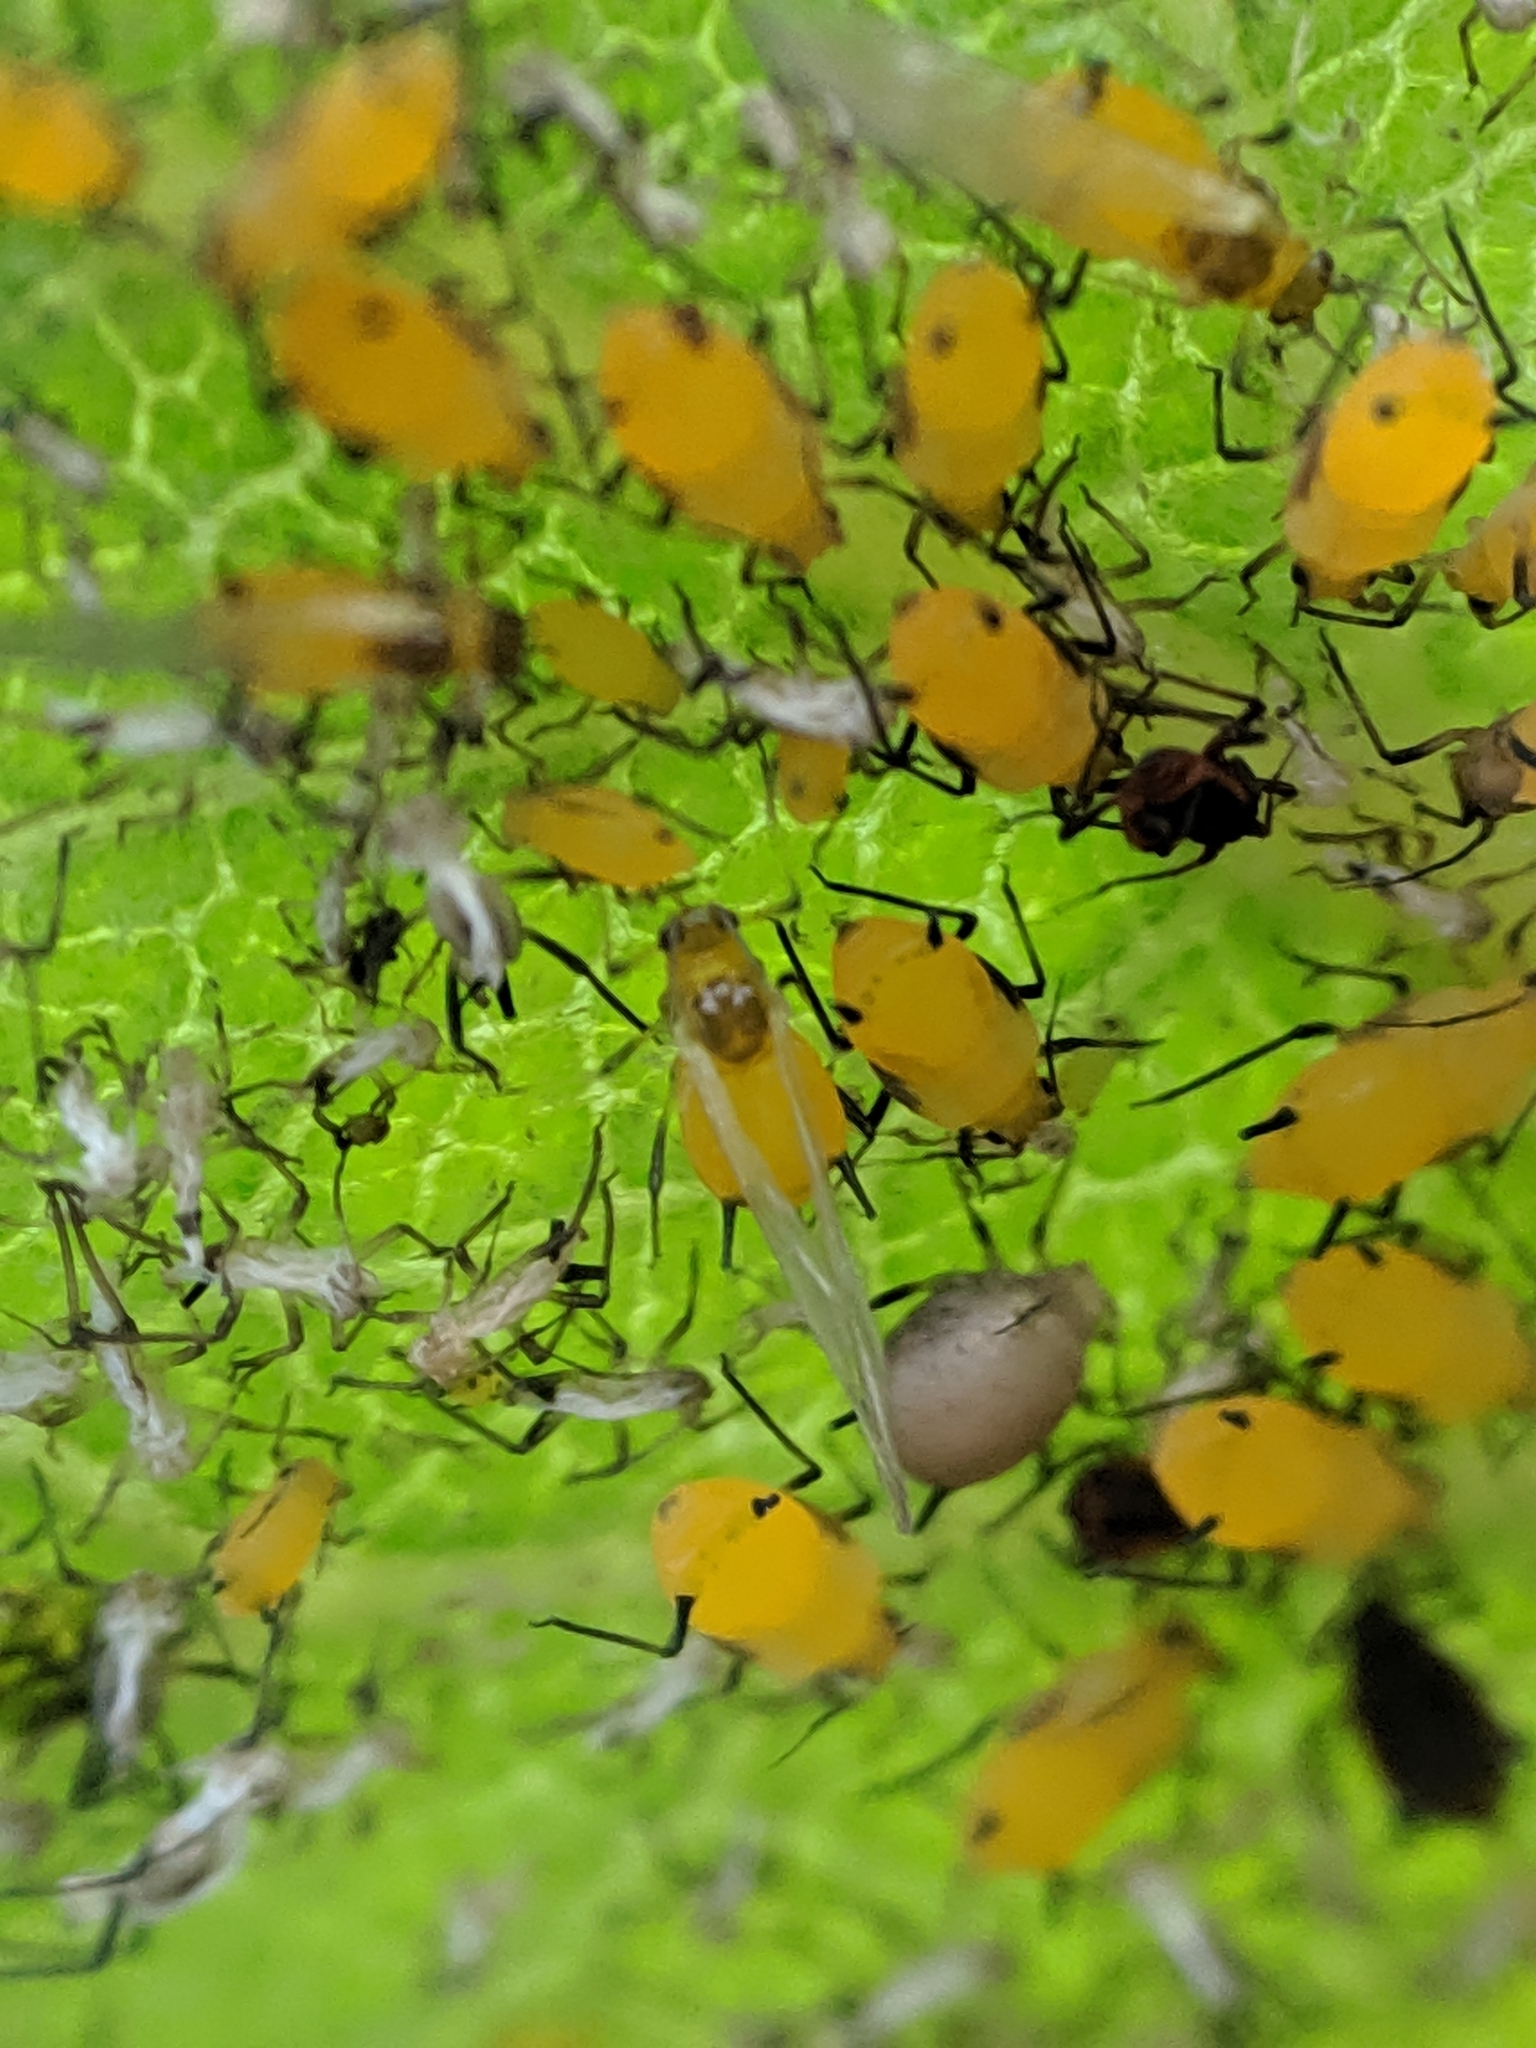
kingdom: Animalia
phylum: Arthropoda
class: Insecta
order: Hemiptera
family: Aphididae
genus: Aphis
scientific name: Aphis nerii
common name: Oleander aphid
